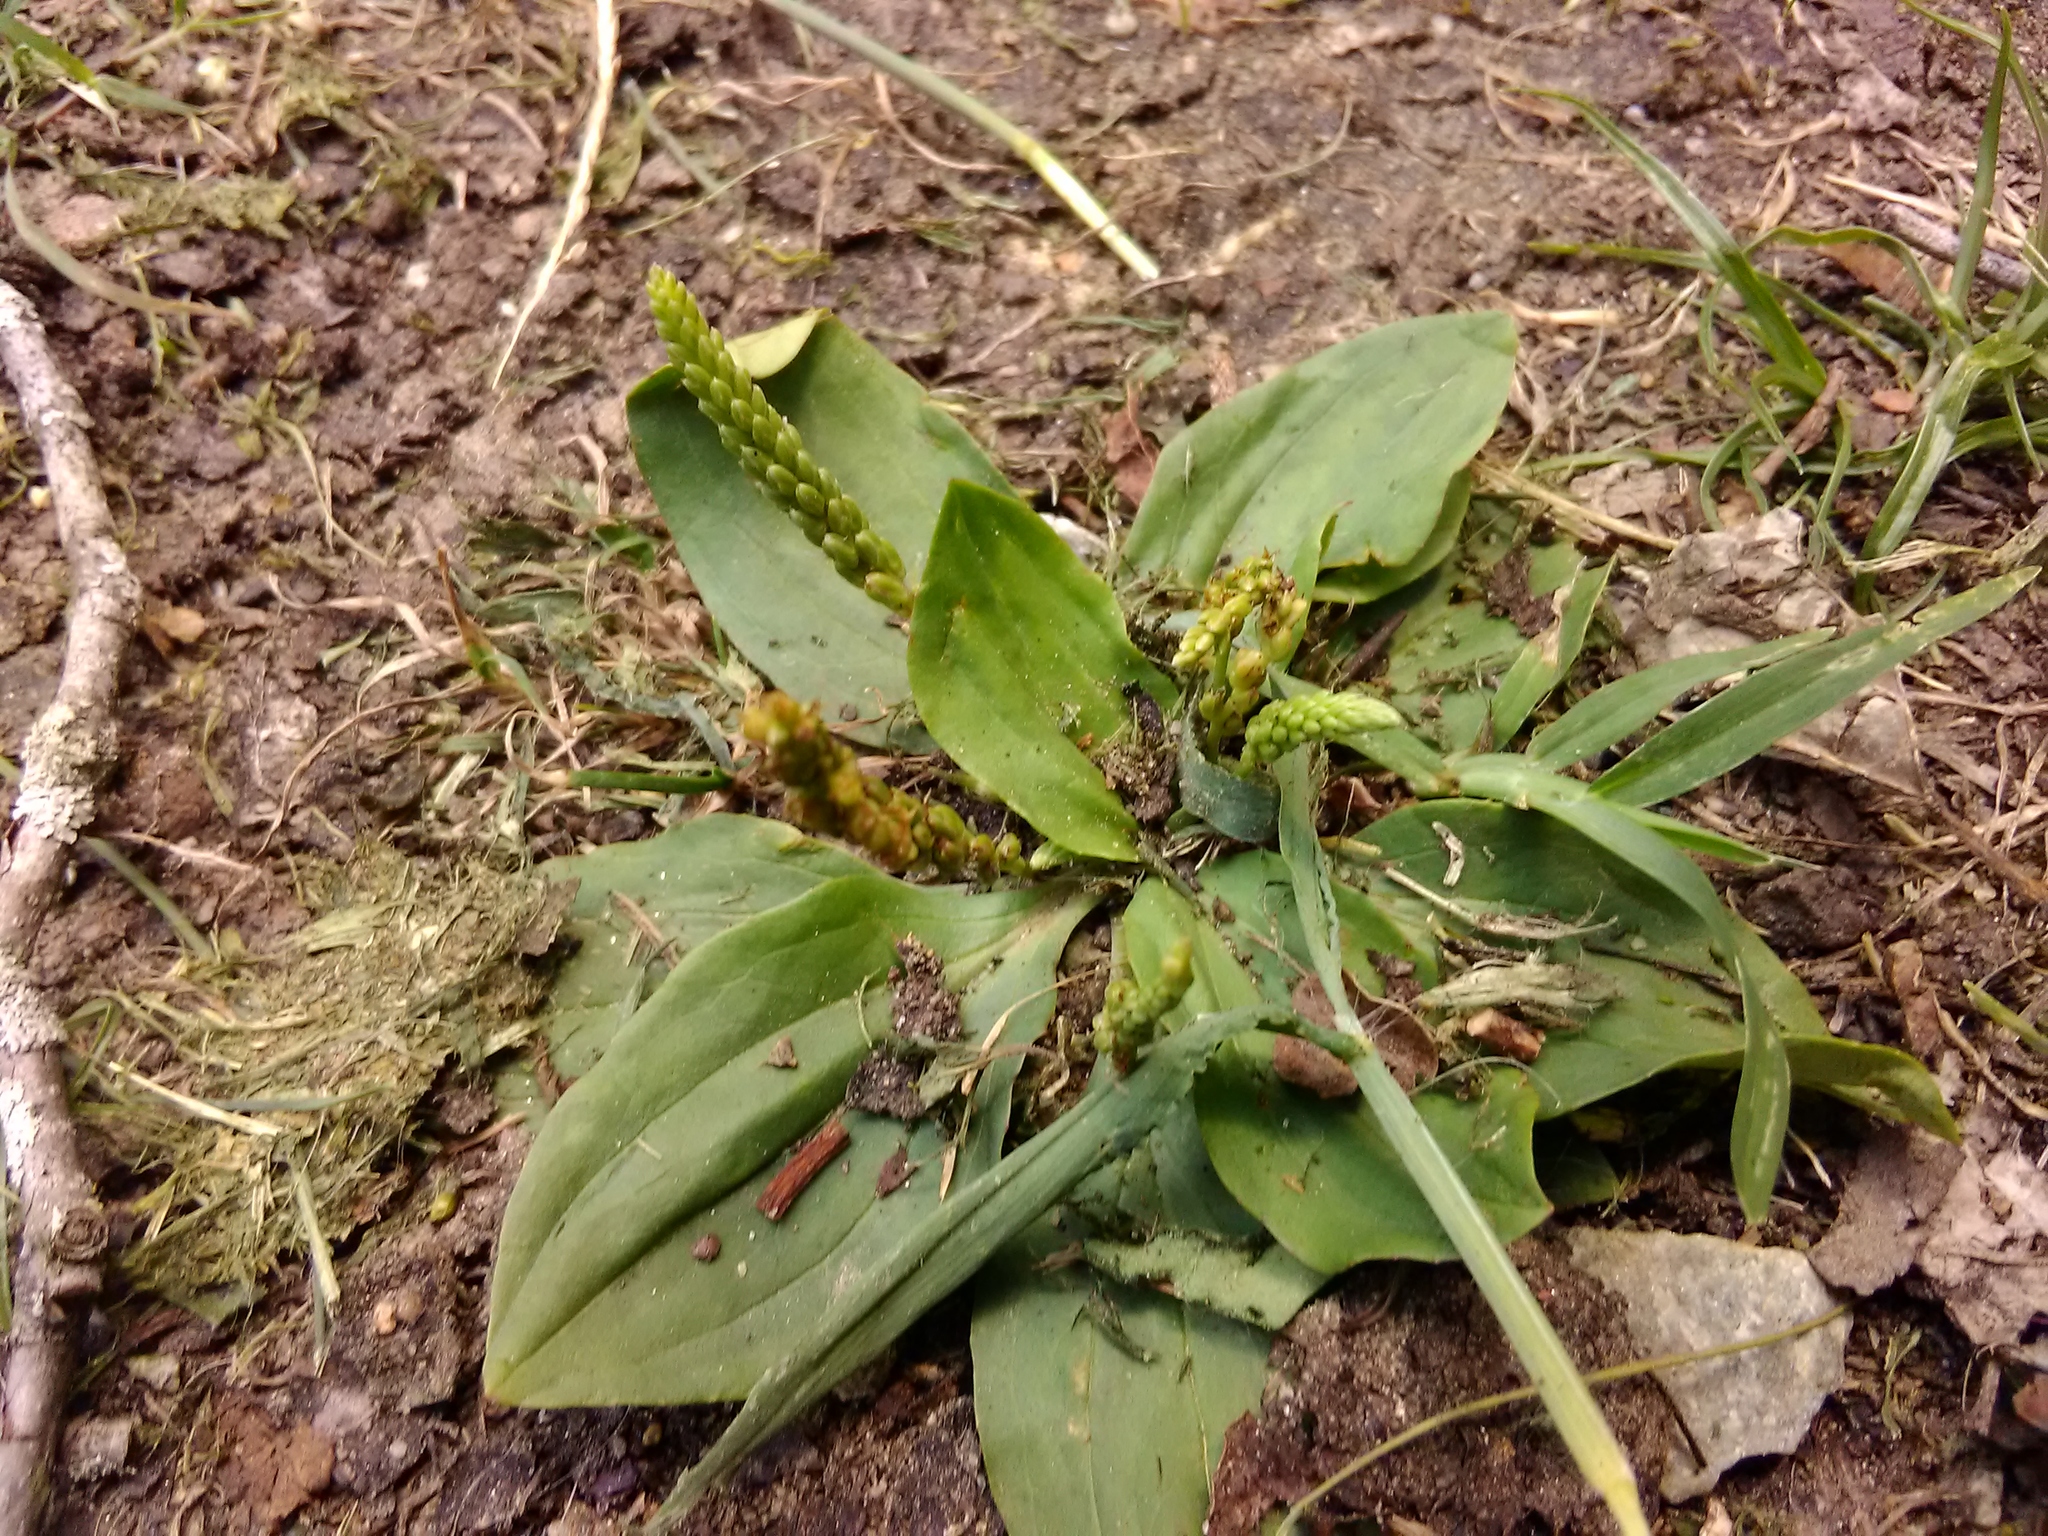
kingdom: Plantae
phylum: Tracheophyta
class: Magnoliopsida
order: Lamiales
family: Plantaginaceae
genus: Plantago
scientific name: Plantago major
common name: Common plantain
